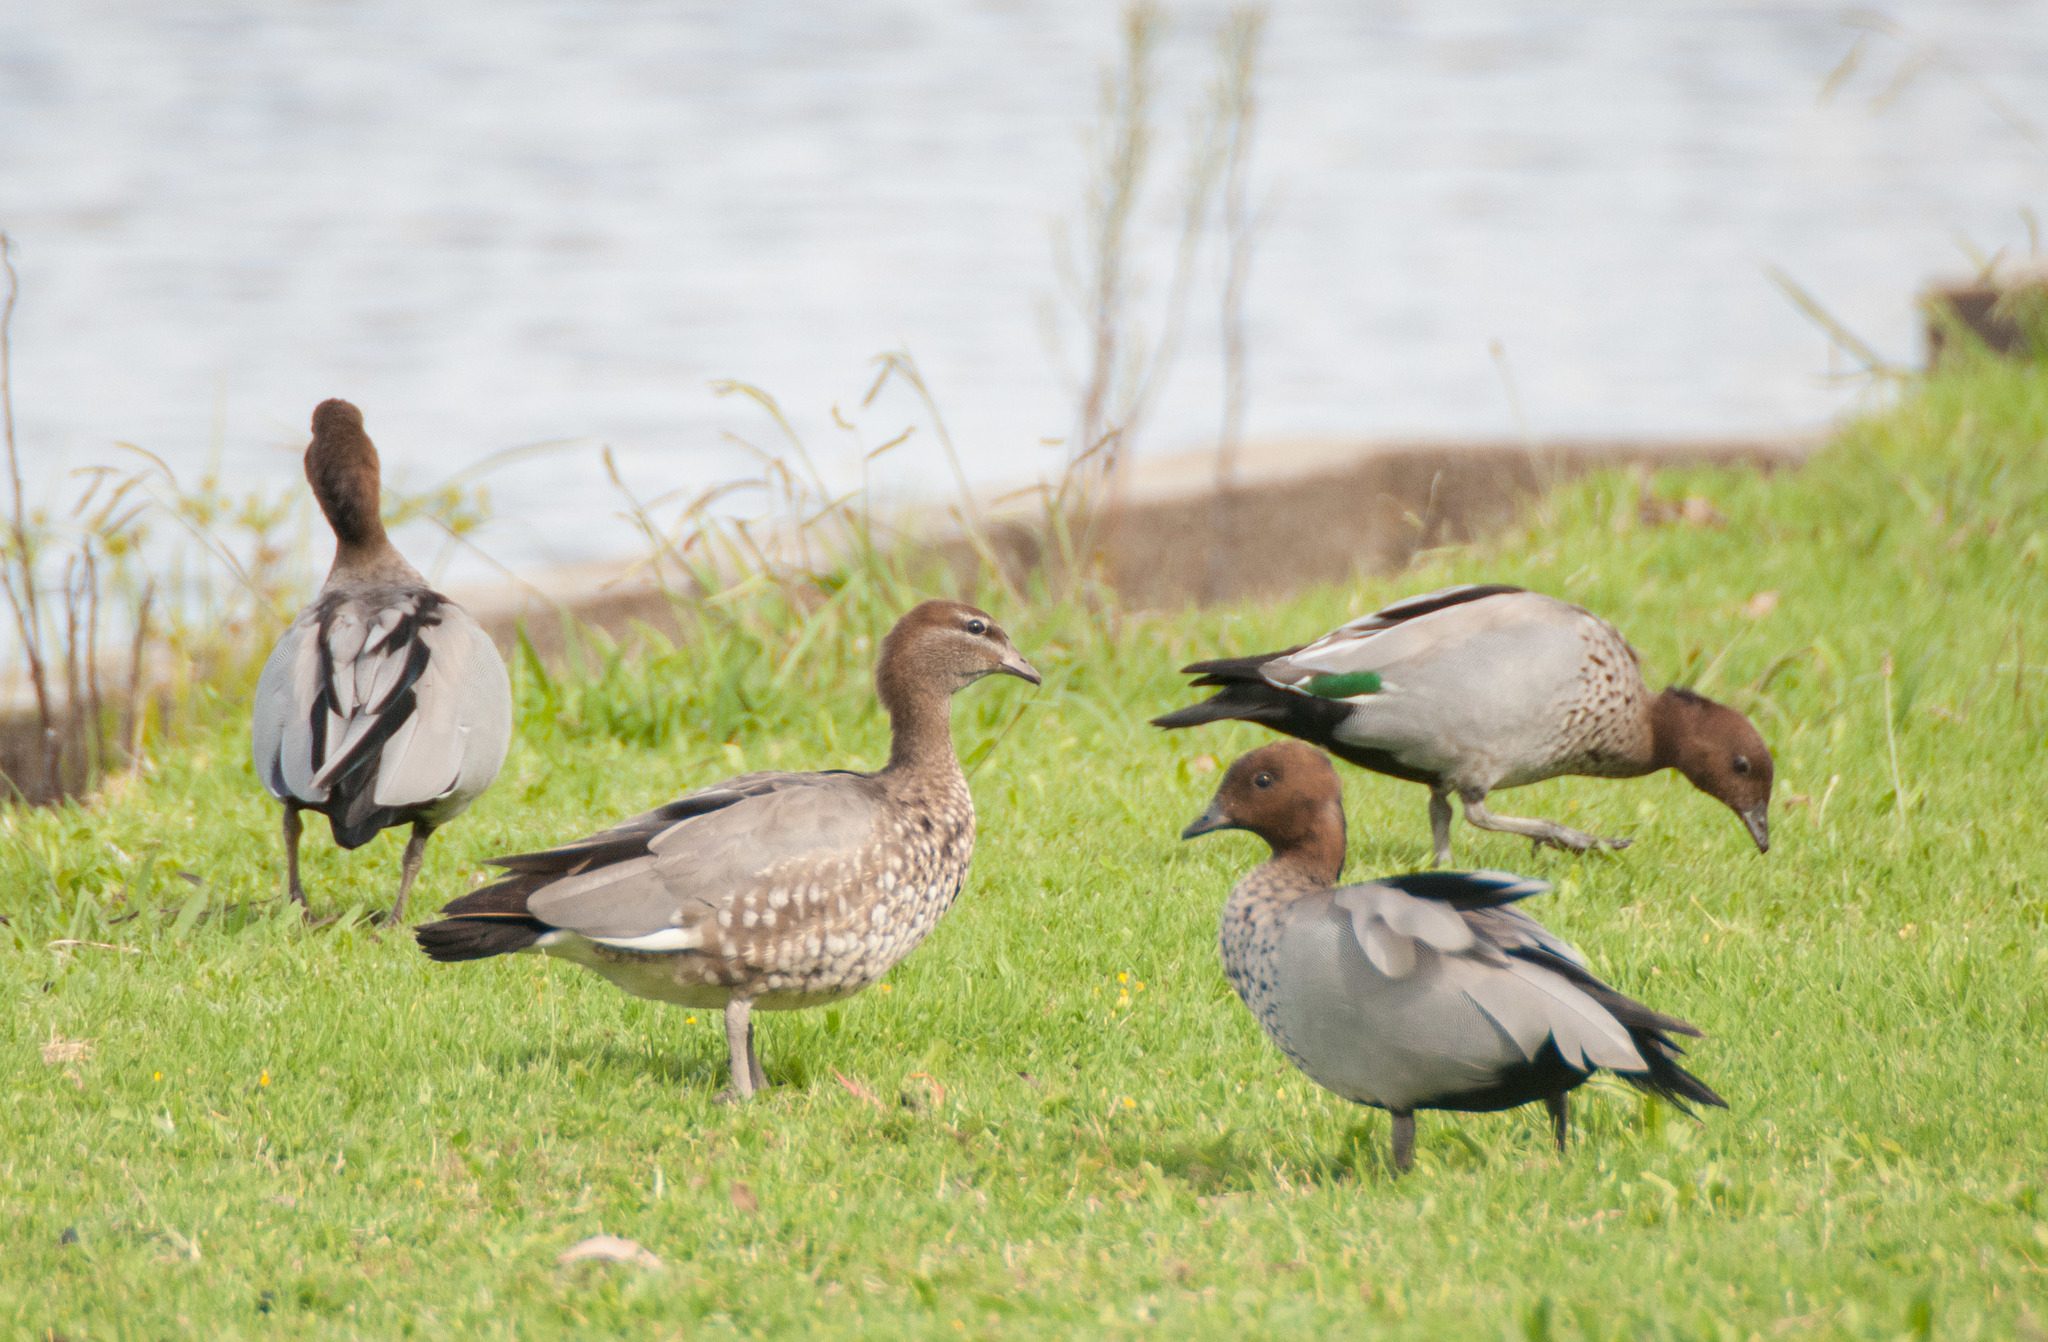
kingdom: Animalia
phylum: Chordata
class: Aves
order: Anseriformes
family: Anatidae
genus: Chenonetta
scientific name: Chenonetta jubata
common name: Maned duck
